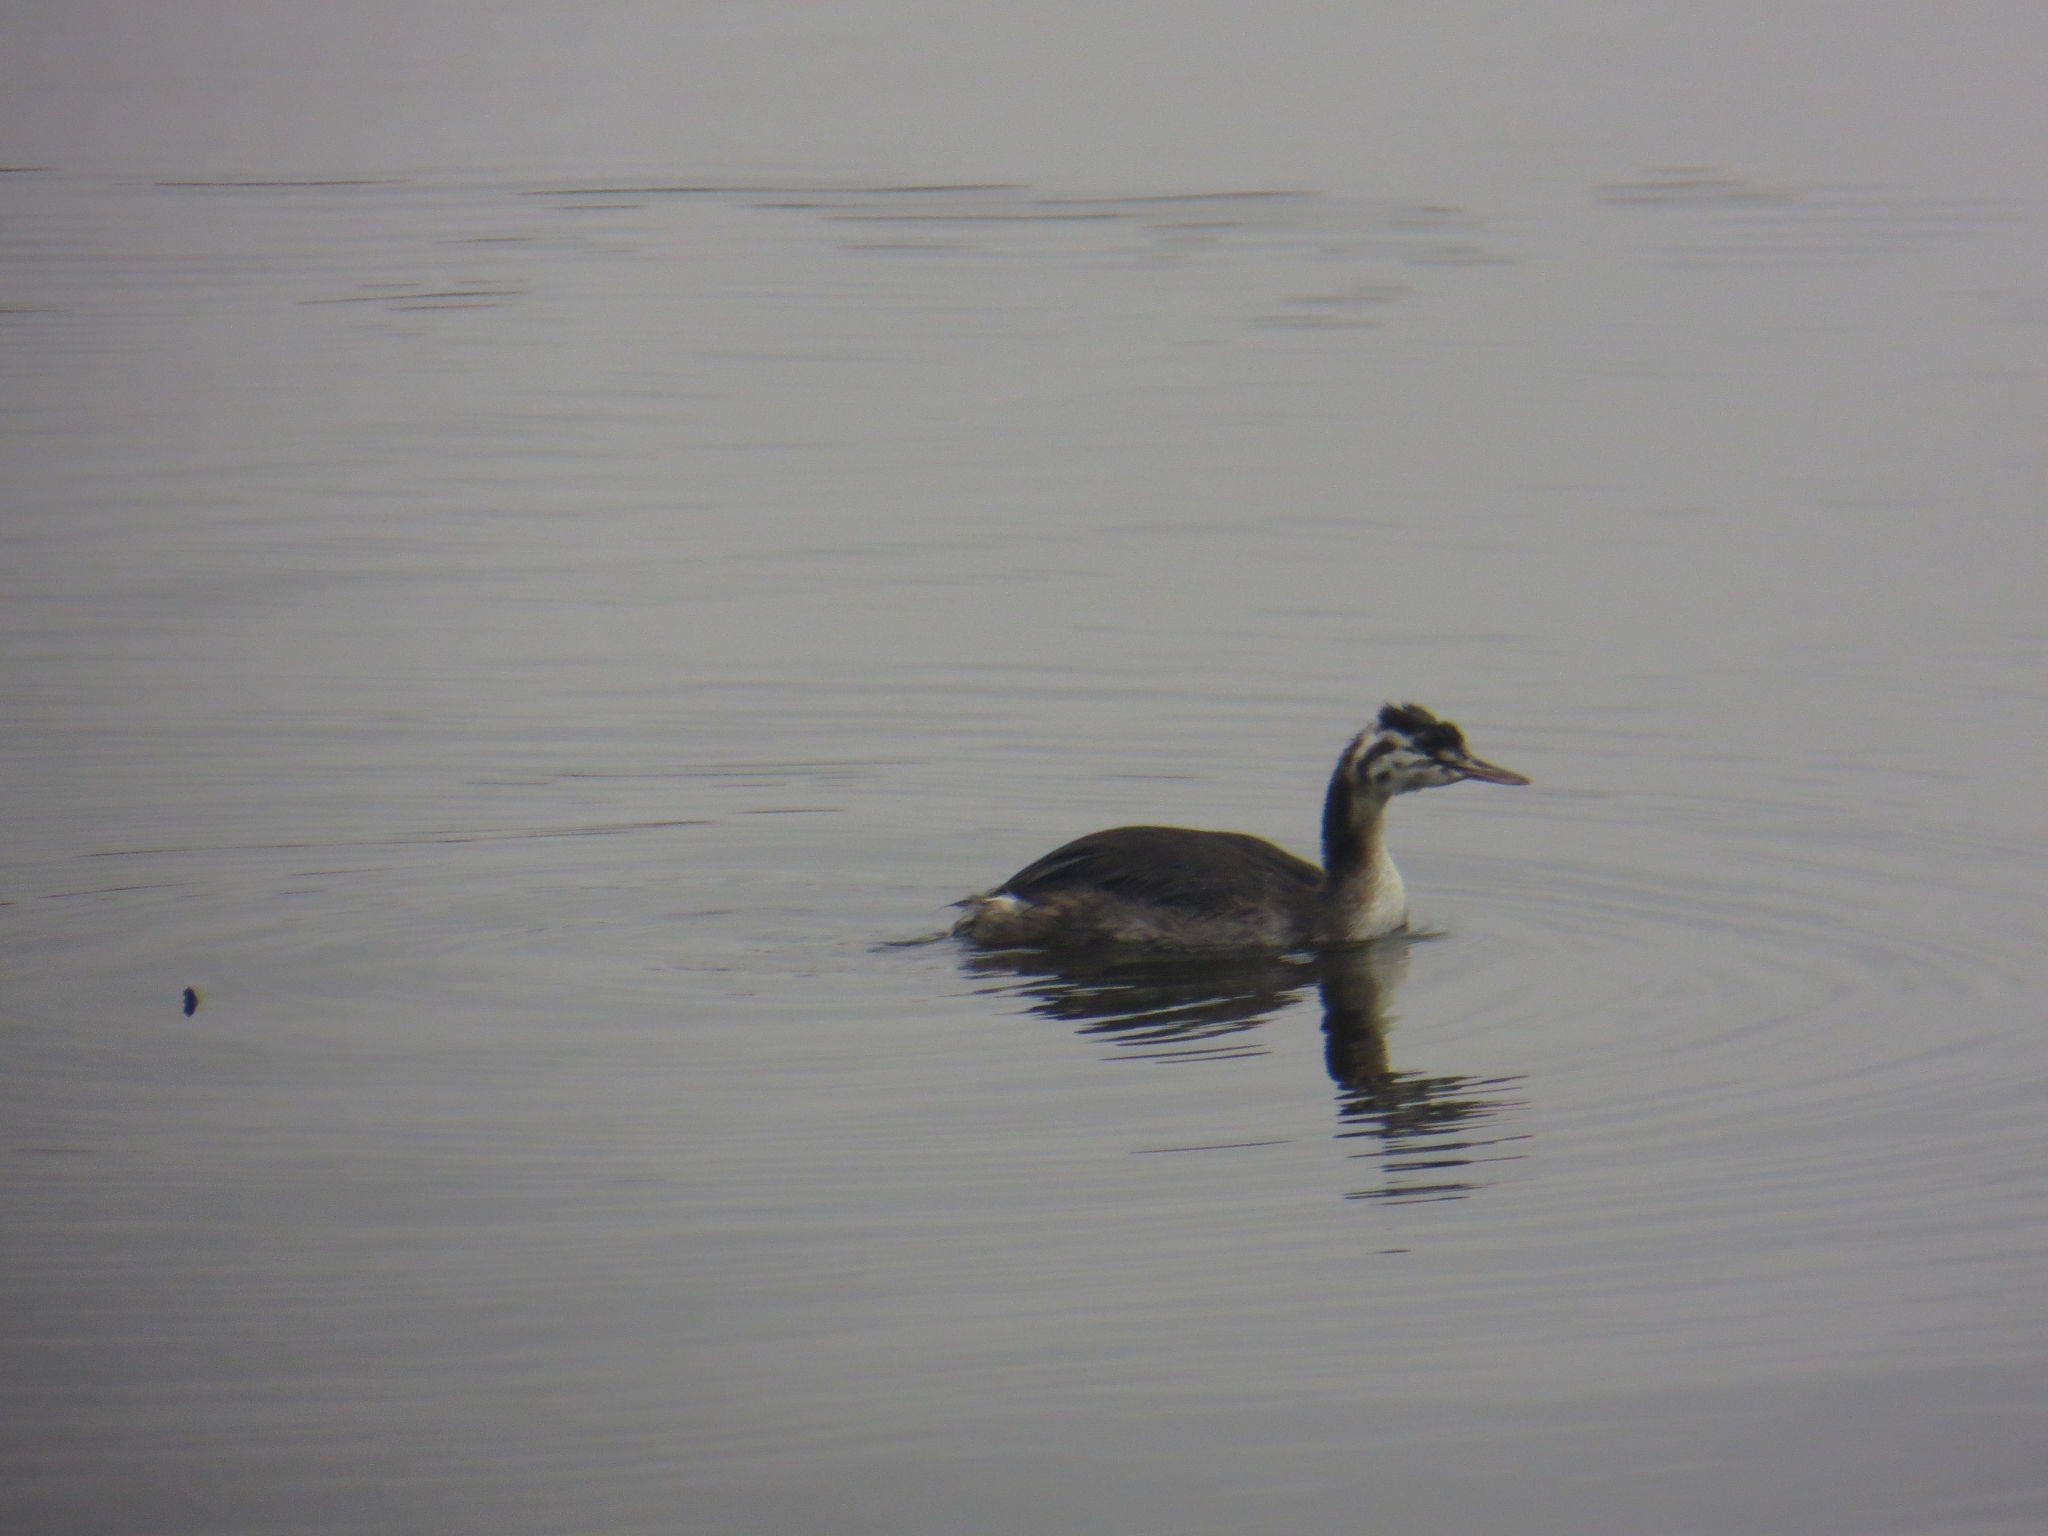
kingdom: Animalia
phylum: Chordata
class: Aves
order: Podicipediformes
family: Podicipedidae
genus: Podiceps
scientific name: Podiceps cristatus
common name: Great crested grebe
